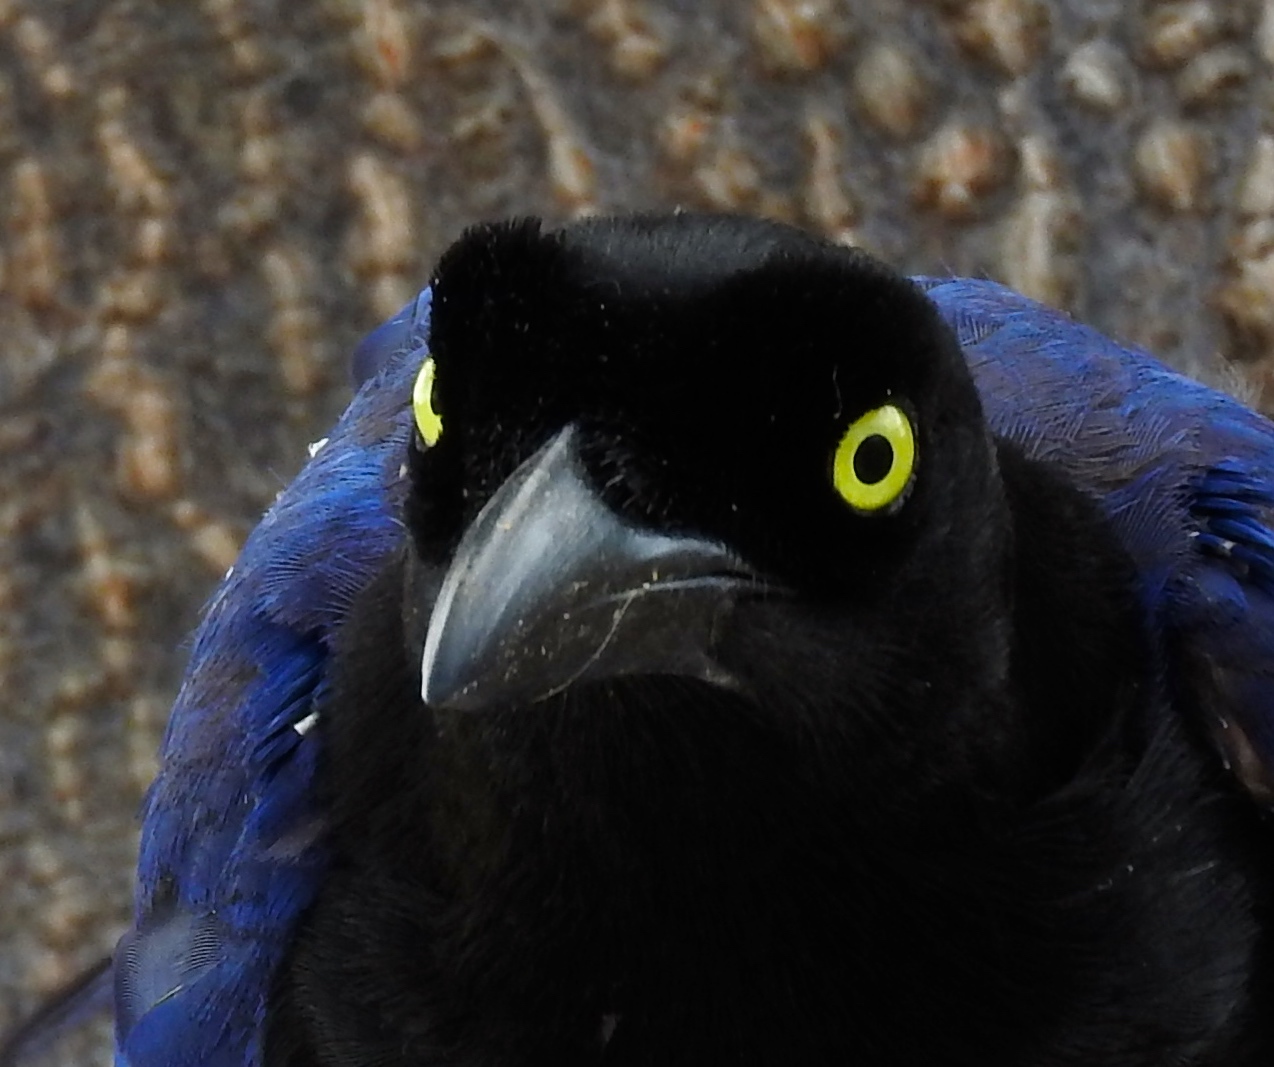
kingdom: Animalia
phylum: Chordata
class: Aves
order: Passeriformes
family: Corvidae
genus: Cyanocorax
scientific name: Cyanocorax beecheii
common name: Purplish-backed jay
